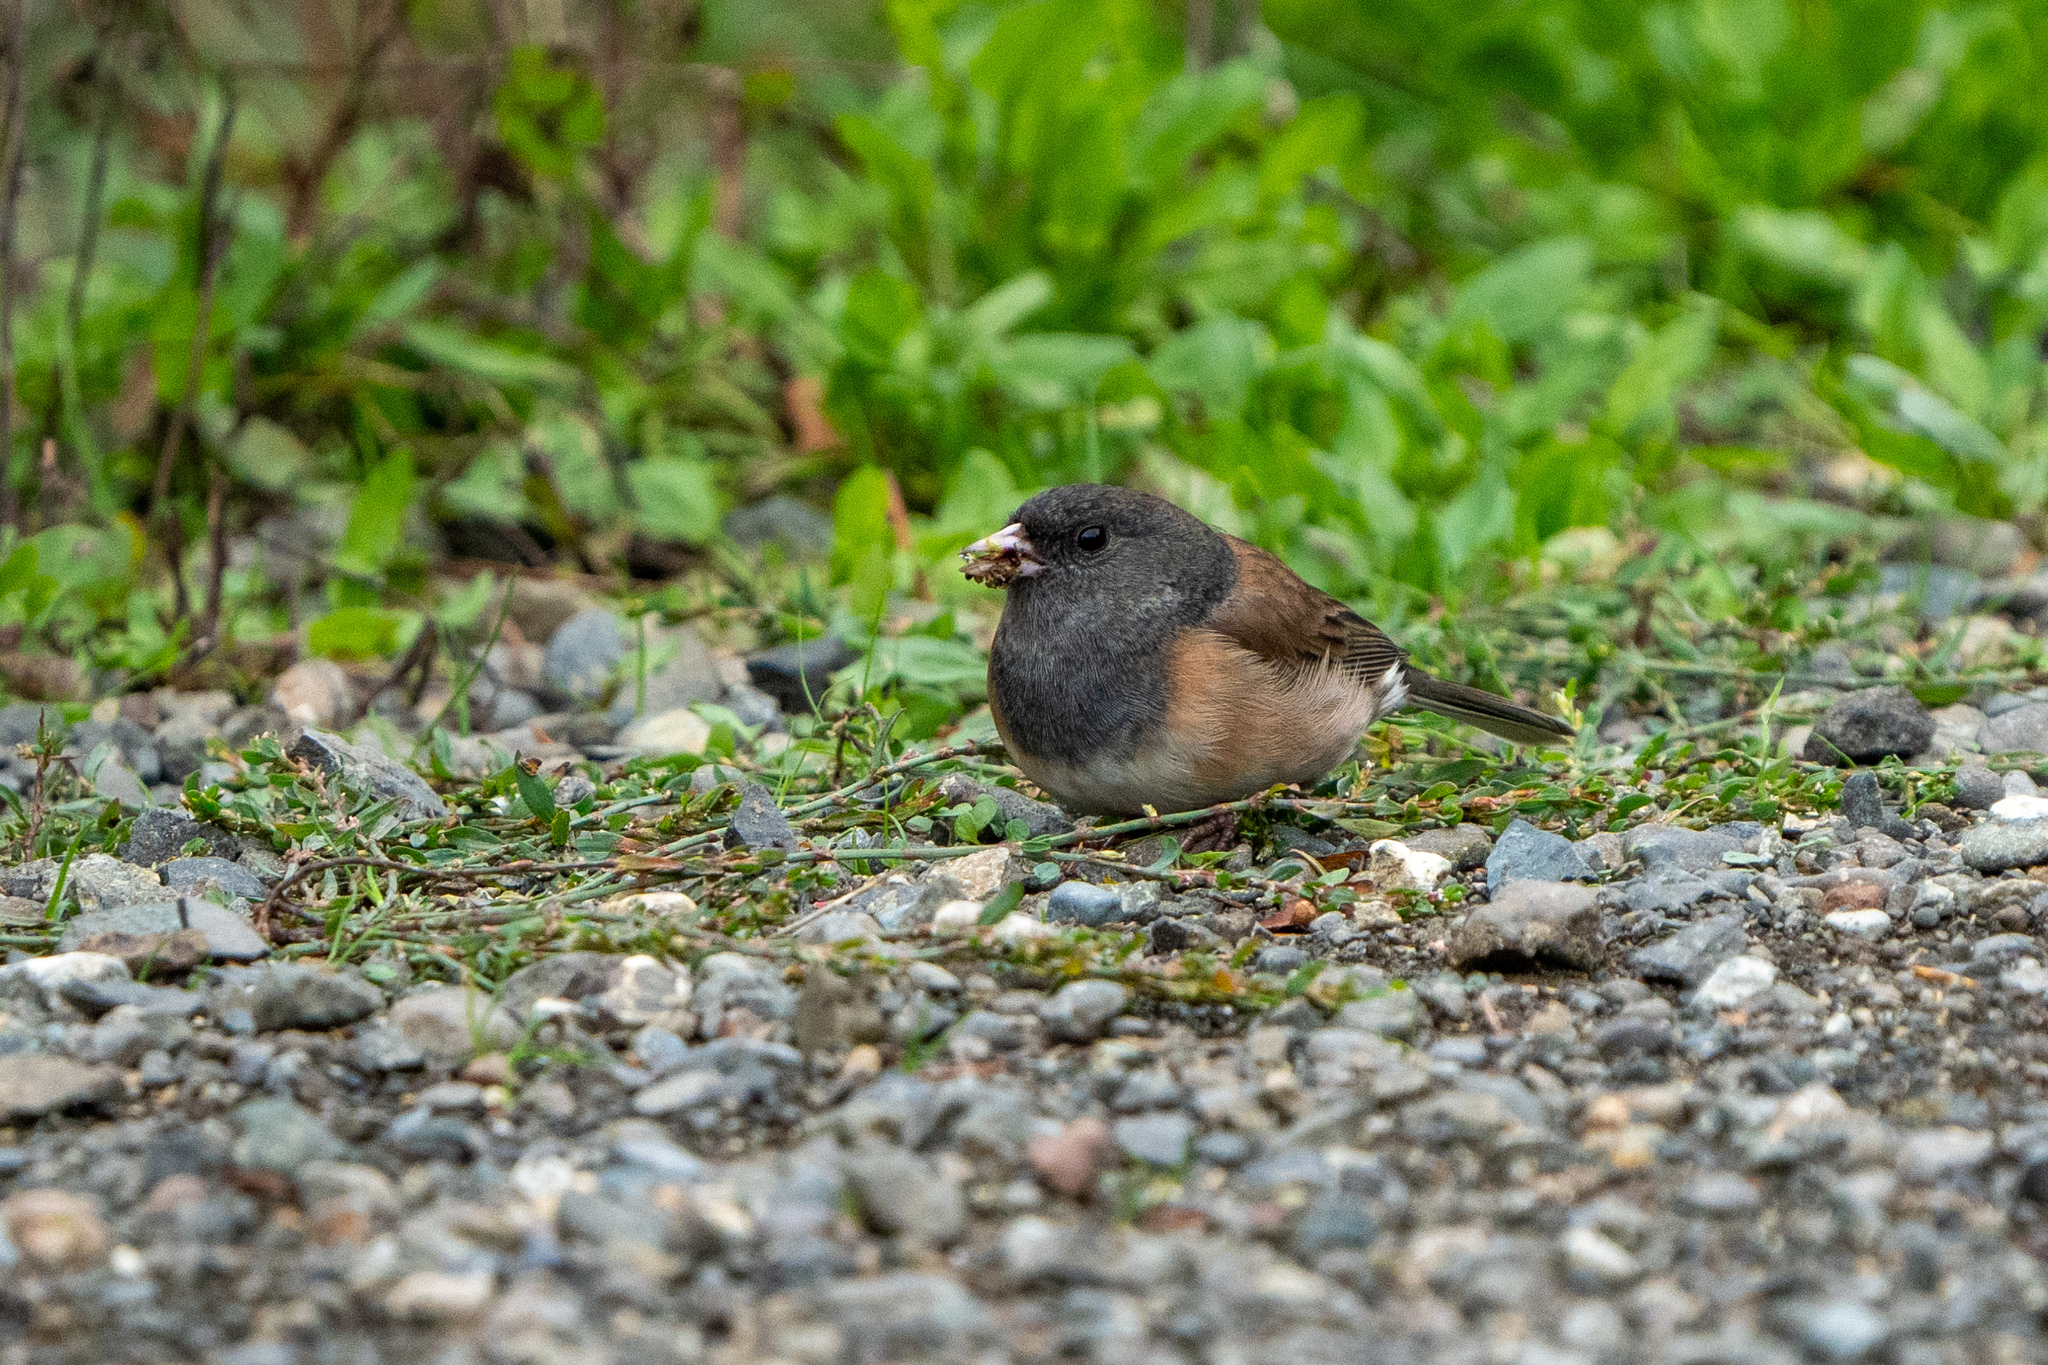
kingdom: Animalia
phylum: Chordata
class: Aves
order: Passeriformes
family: Passerellidae
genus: Junco
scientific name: Junco hyemalis
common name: Dark-eyed junco
